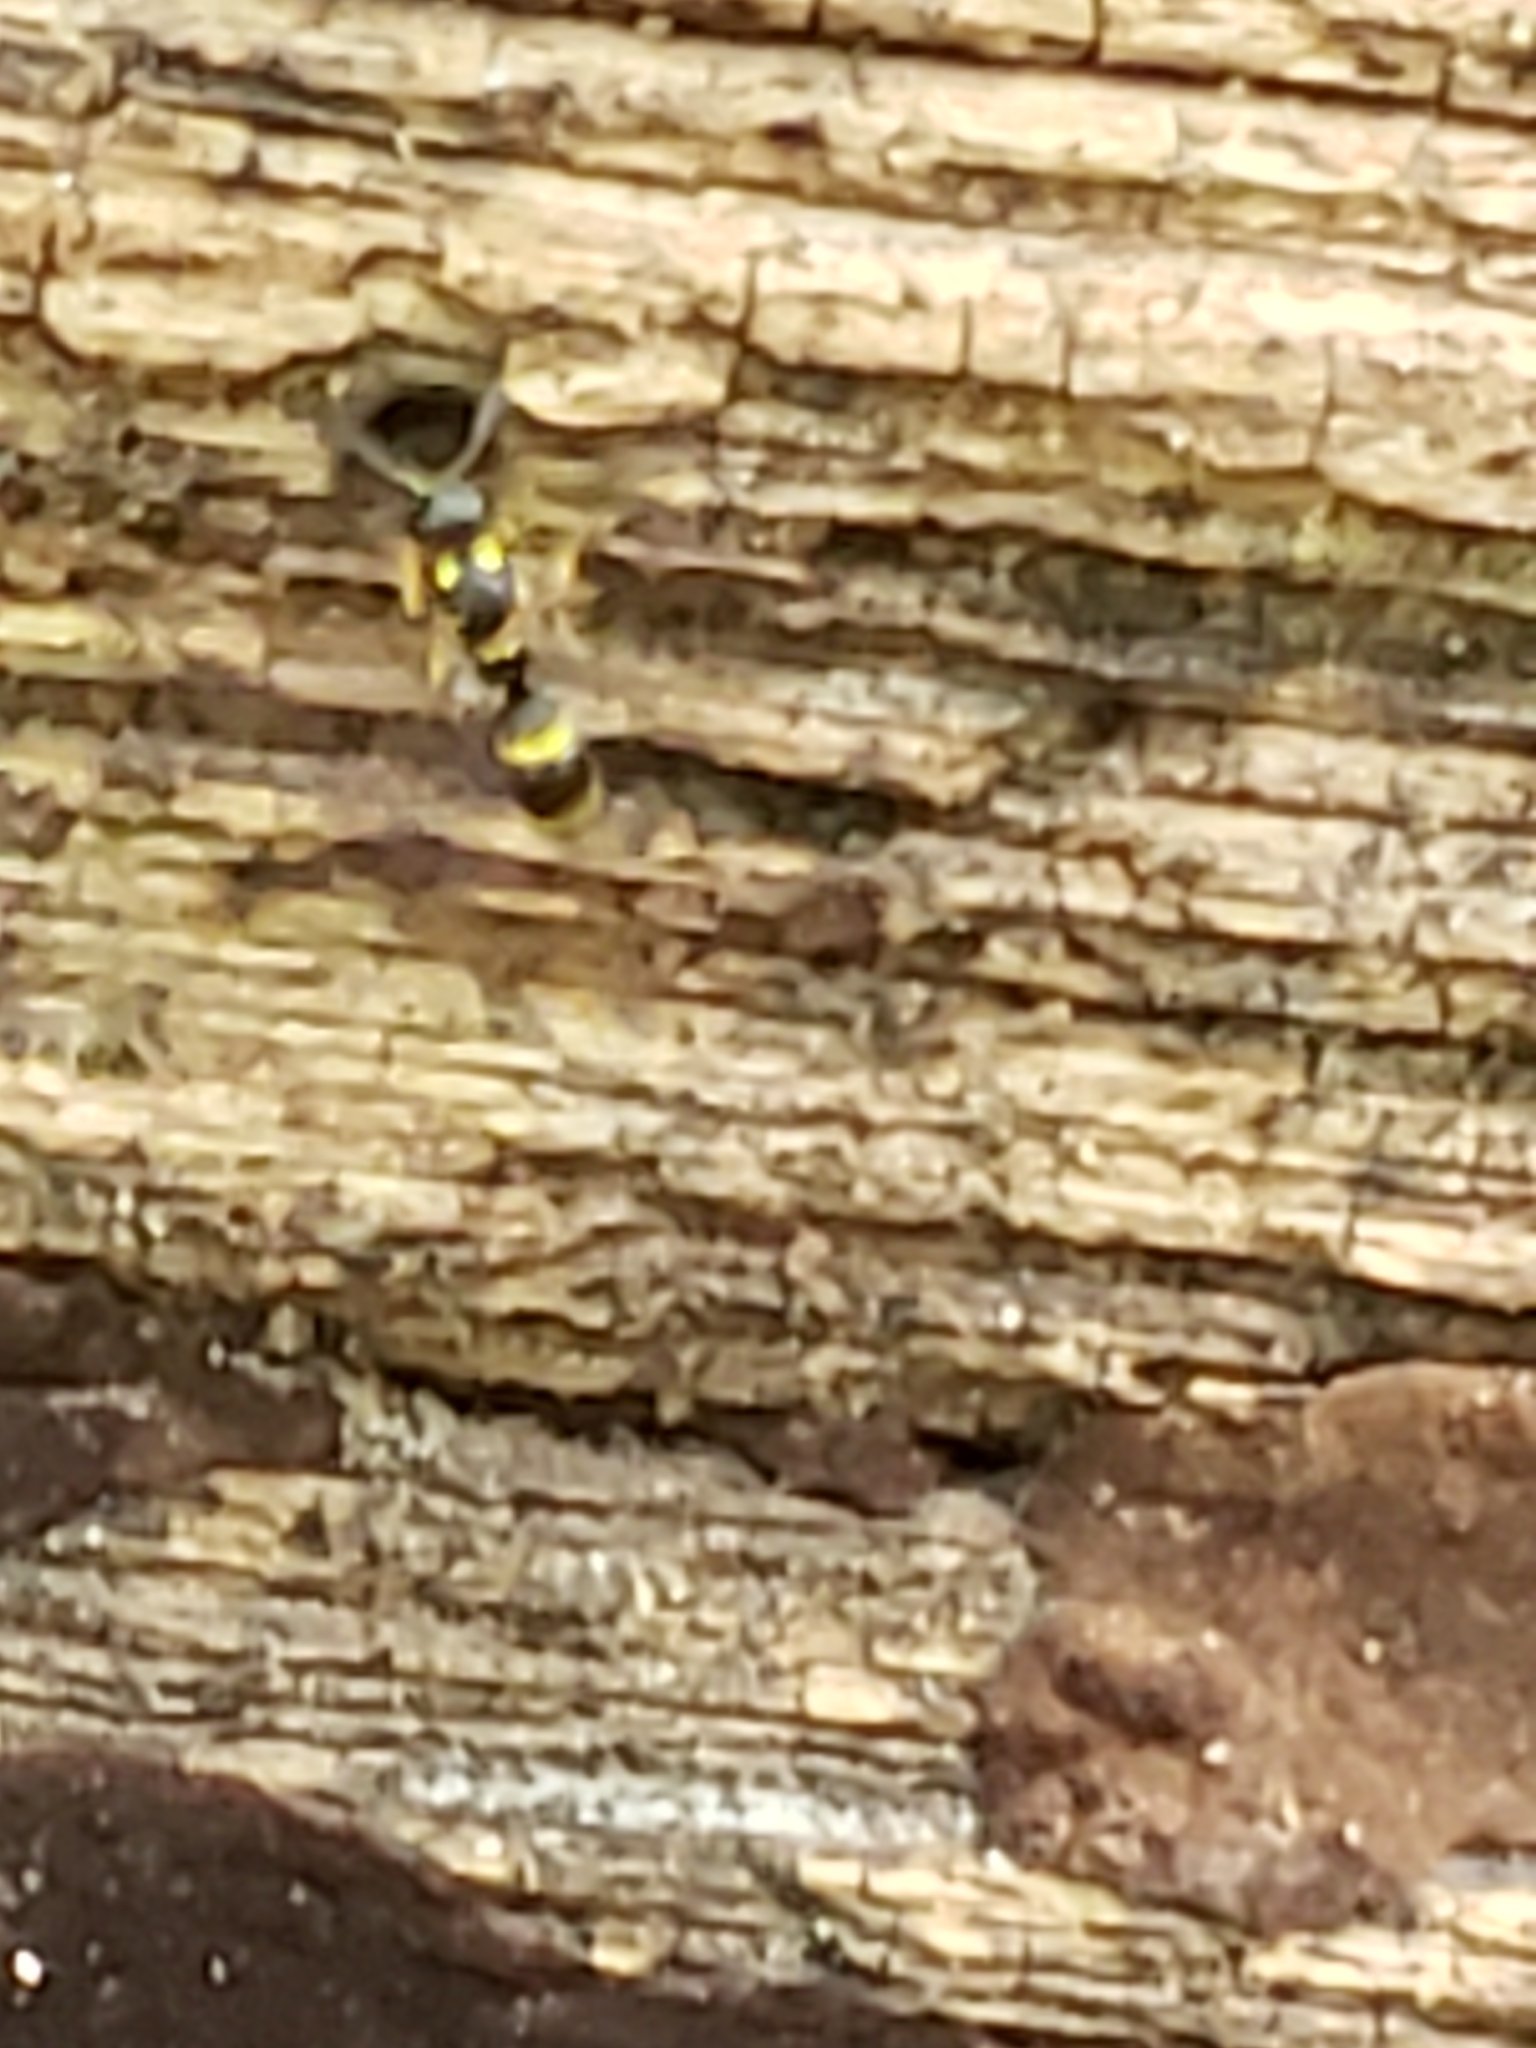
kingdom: Animalia
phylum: Arthropoda
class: Insecta
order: Hymenoptera
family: Eumenidae
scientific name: Eumenidae
